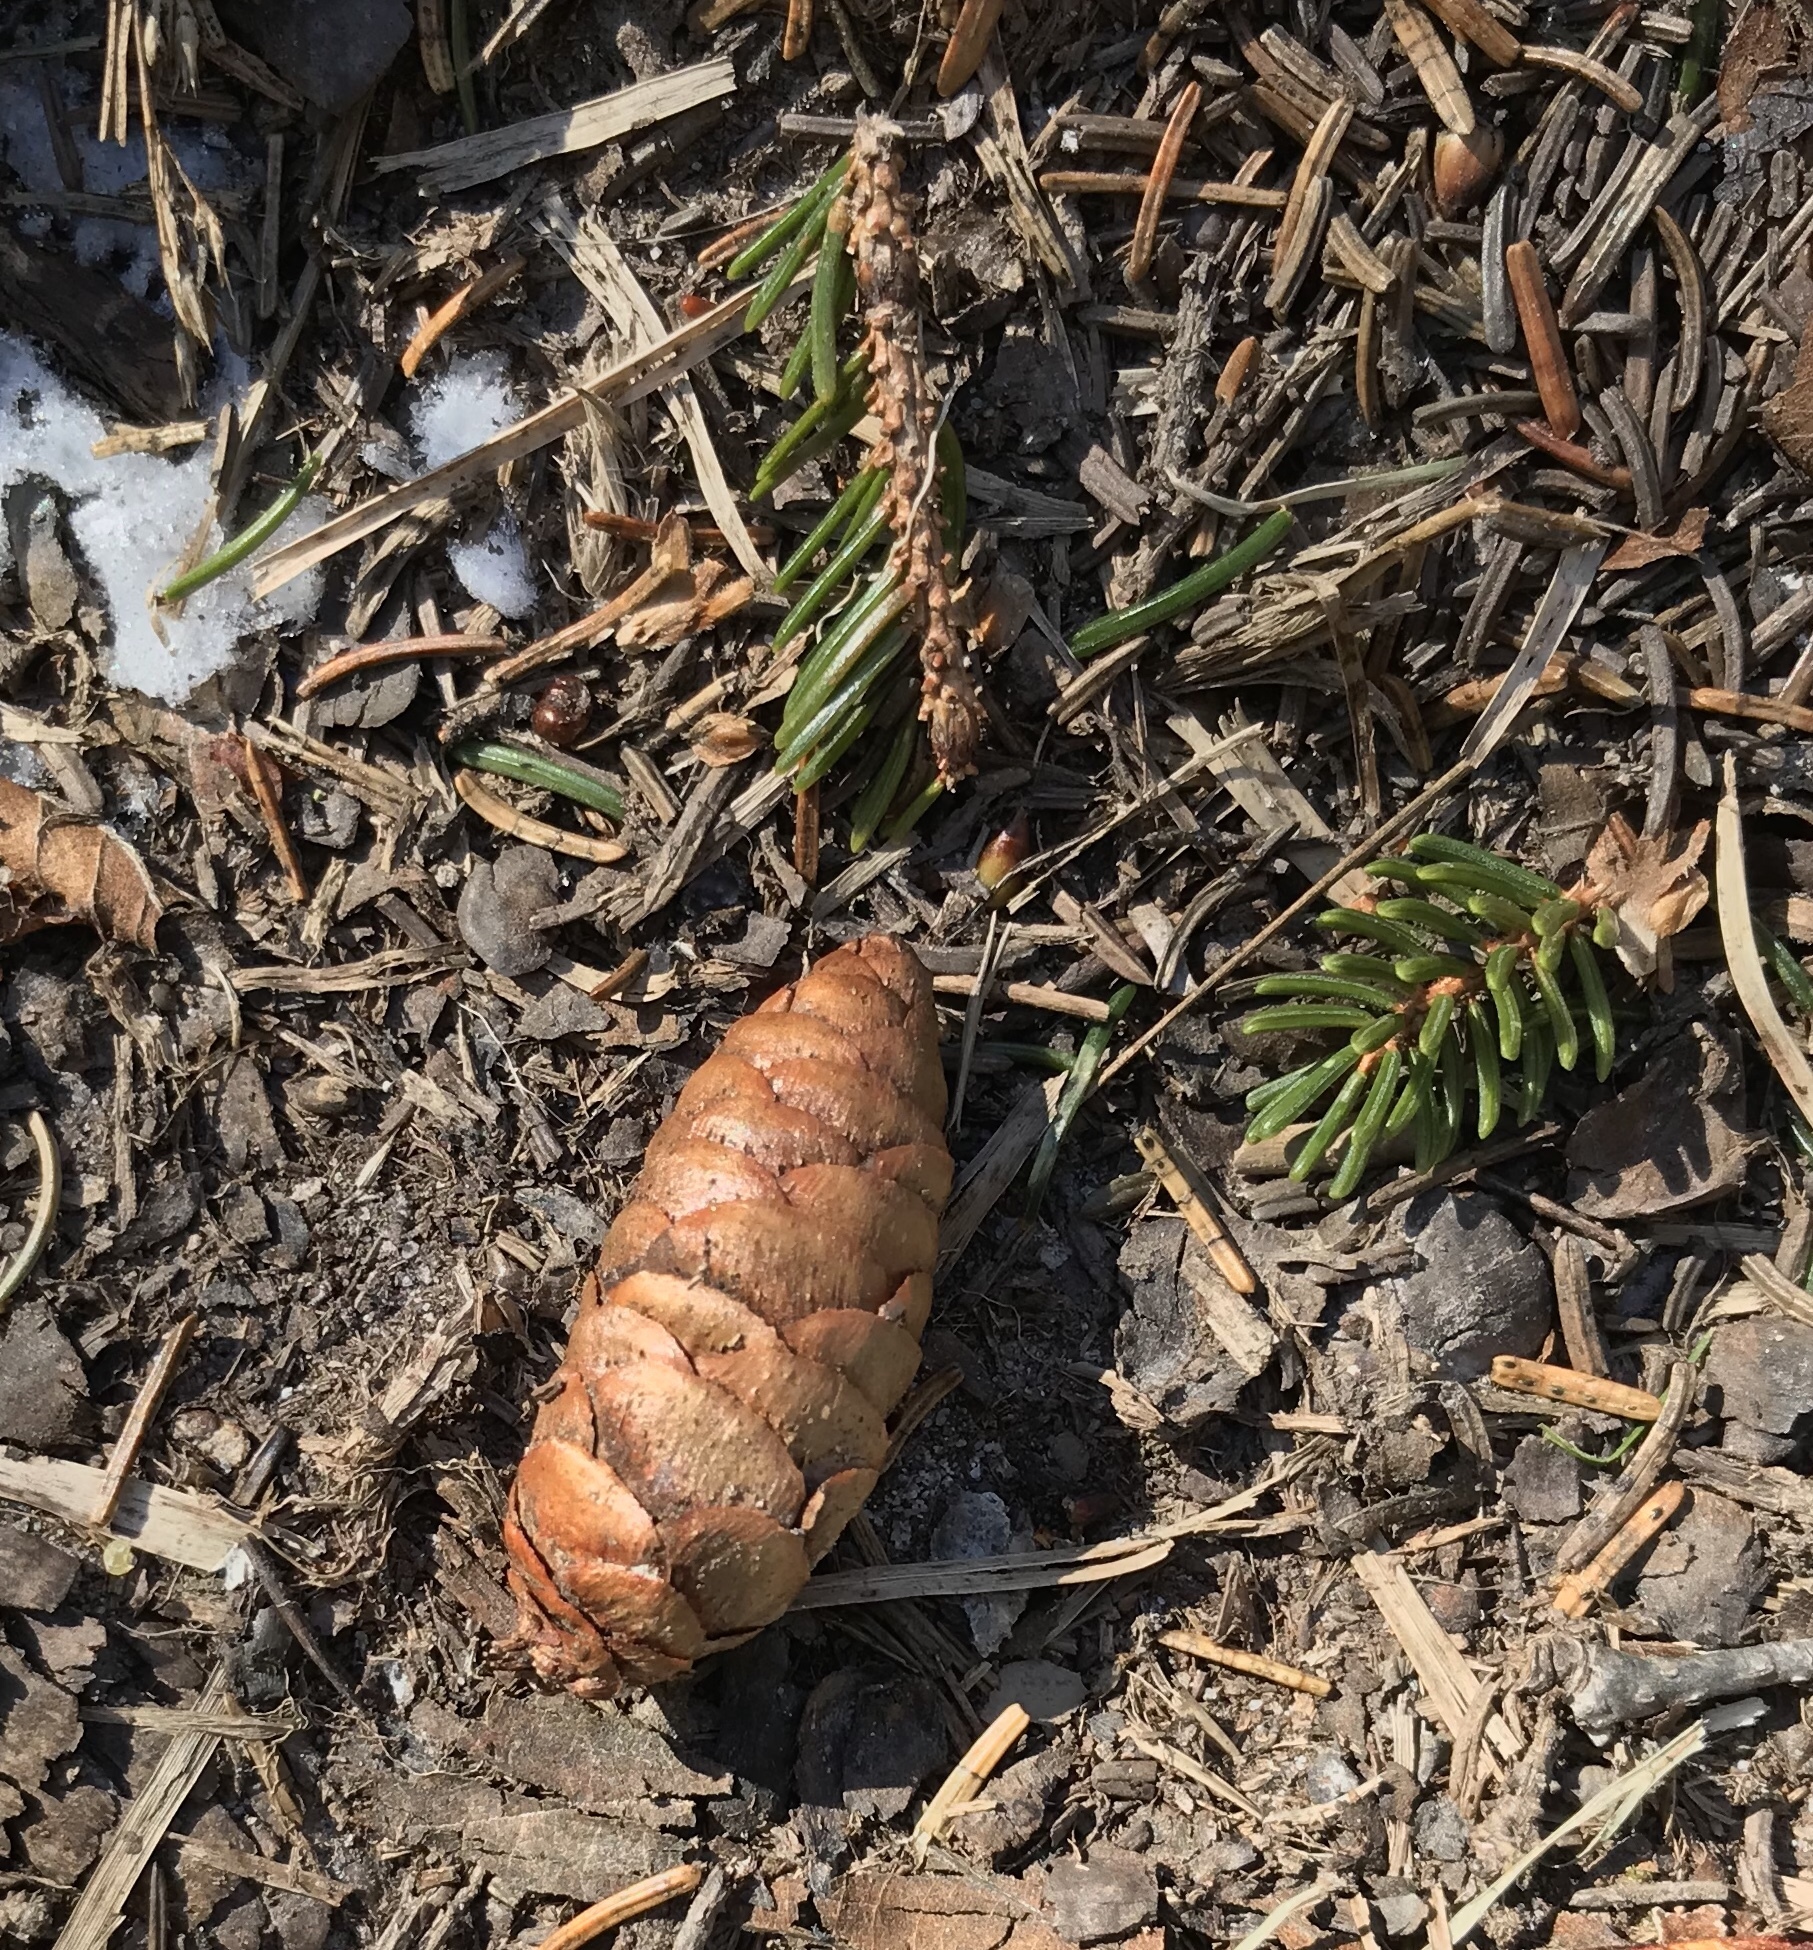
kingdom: Plantae
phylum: Tracheophyta
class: Pinopsida
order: Pinales
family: Pinaceae
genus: Picea
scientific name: Picea rubens
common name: Red spruce
